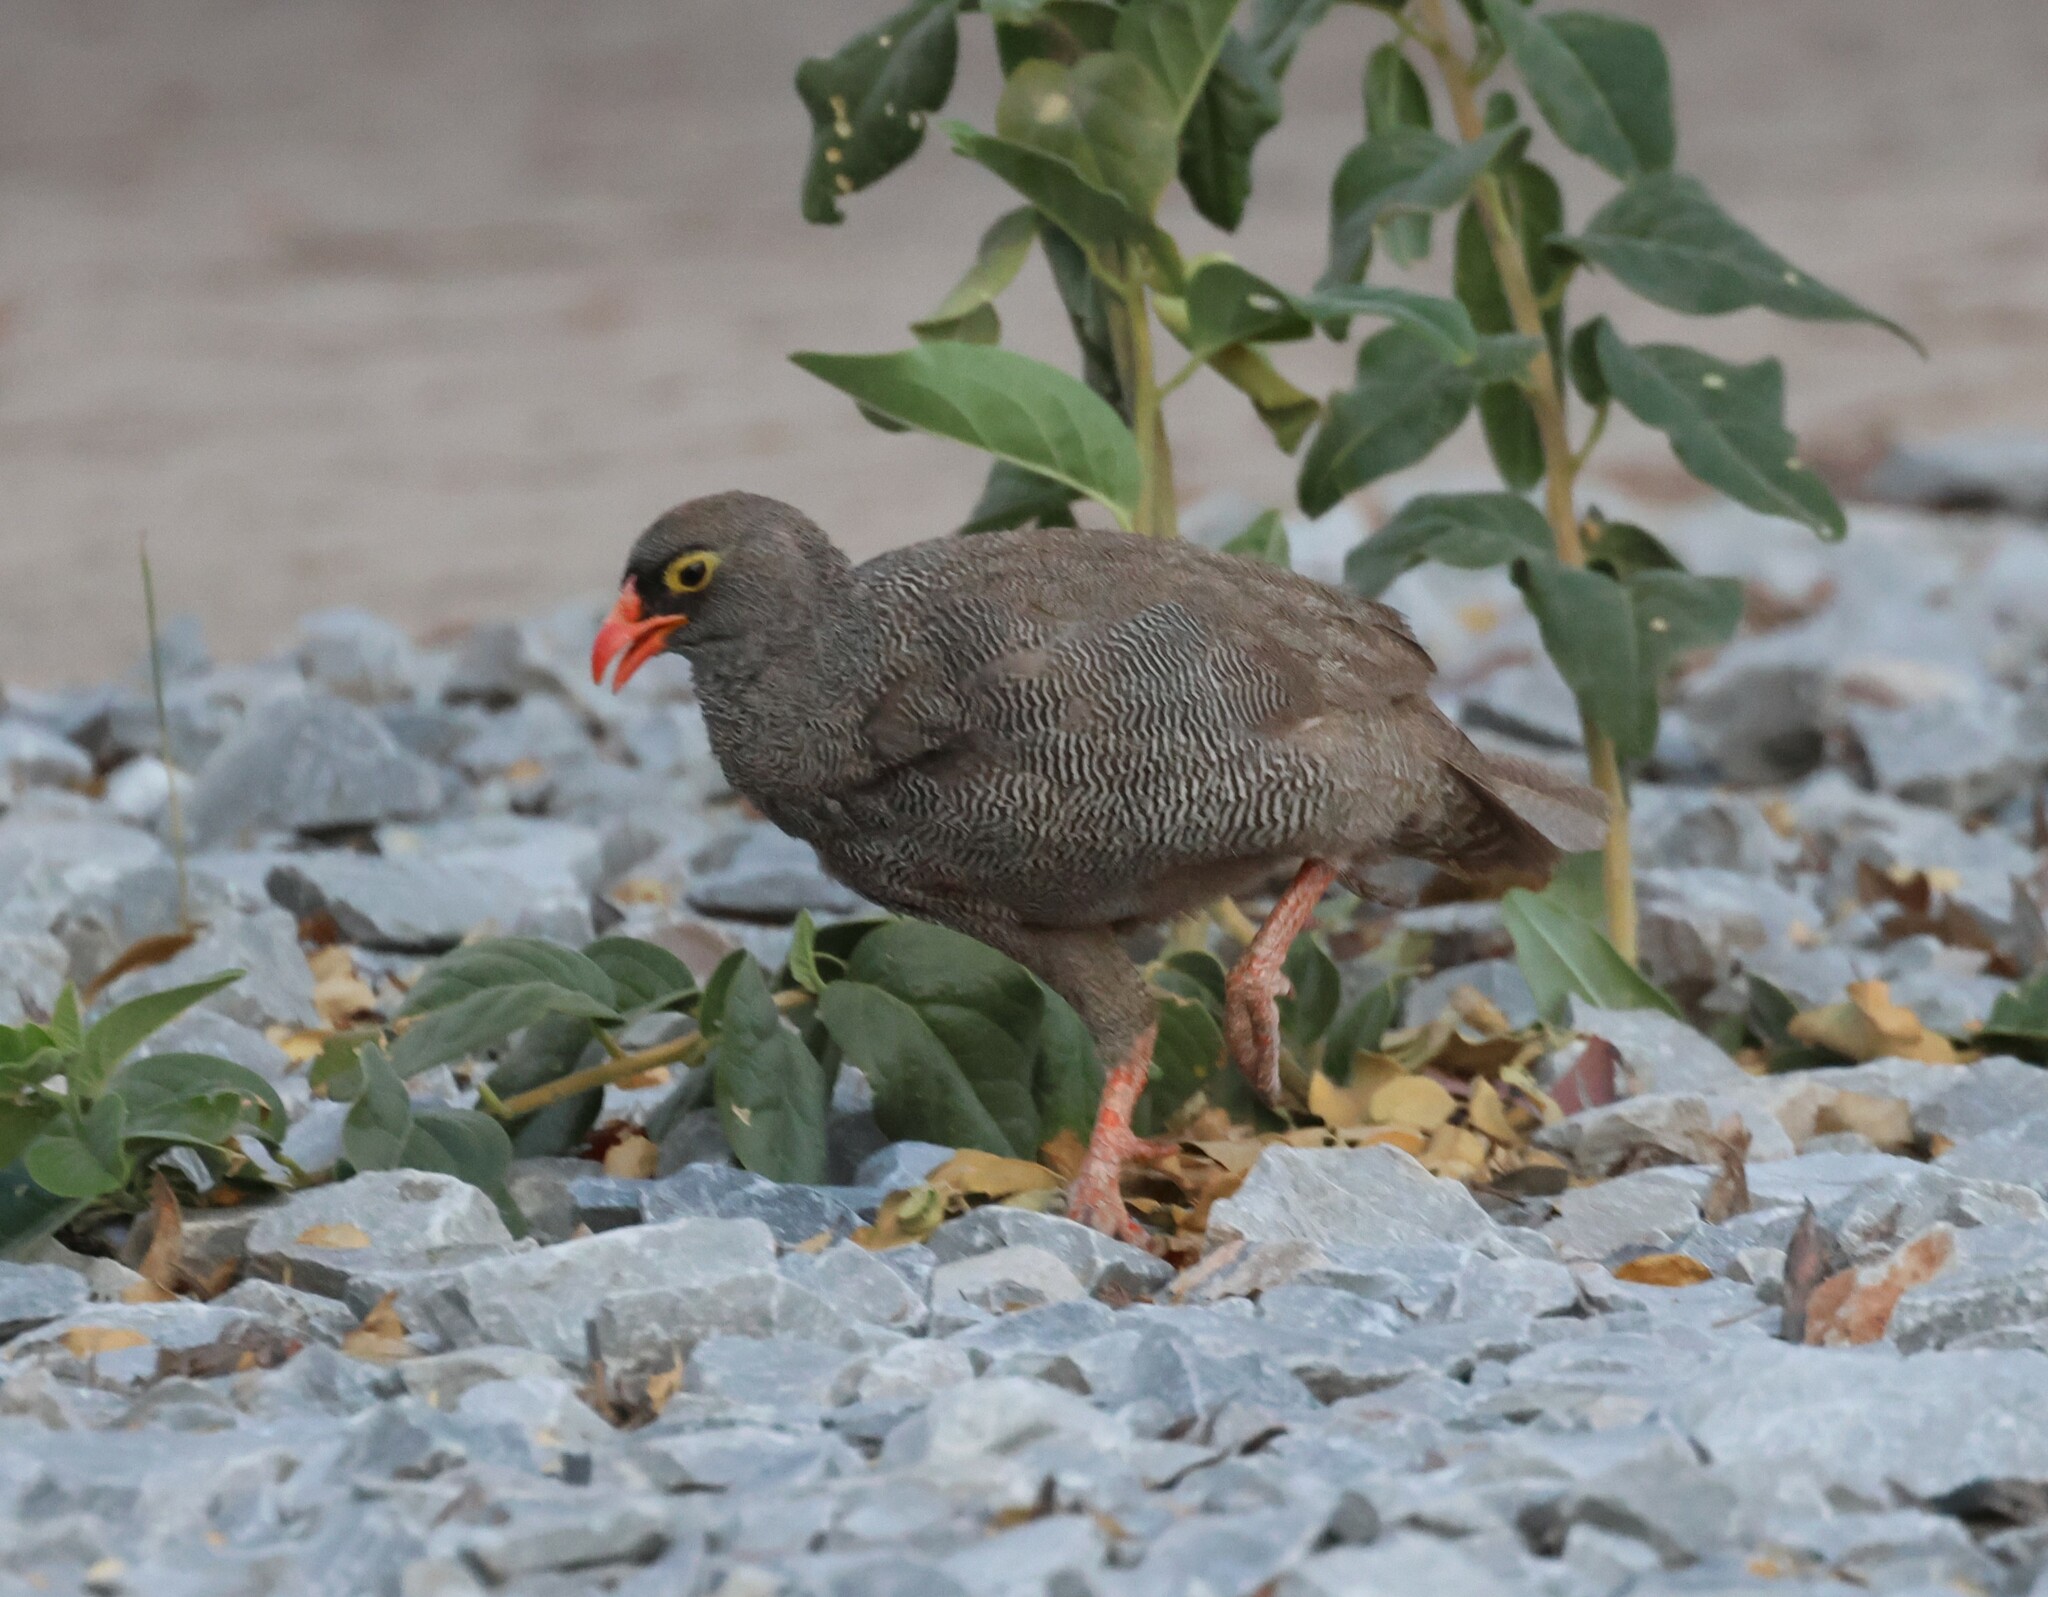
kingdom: Animalia
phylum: Chordata
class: Aves
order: Galliformes
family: Phasianidae
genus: Pternistis
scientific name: Pternistis adspersus
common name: Red-billed spurfowl
